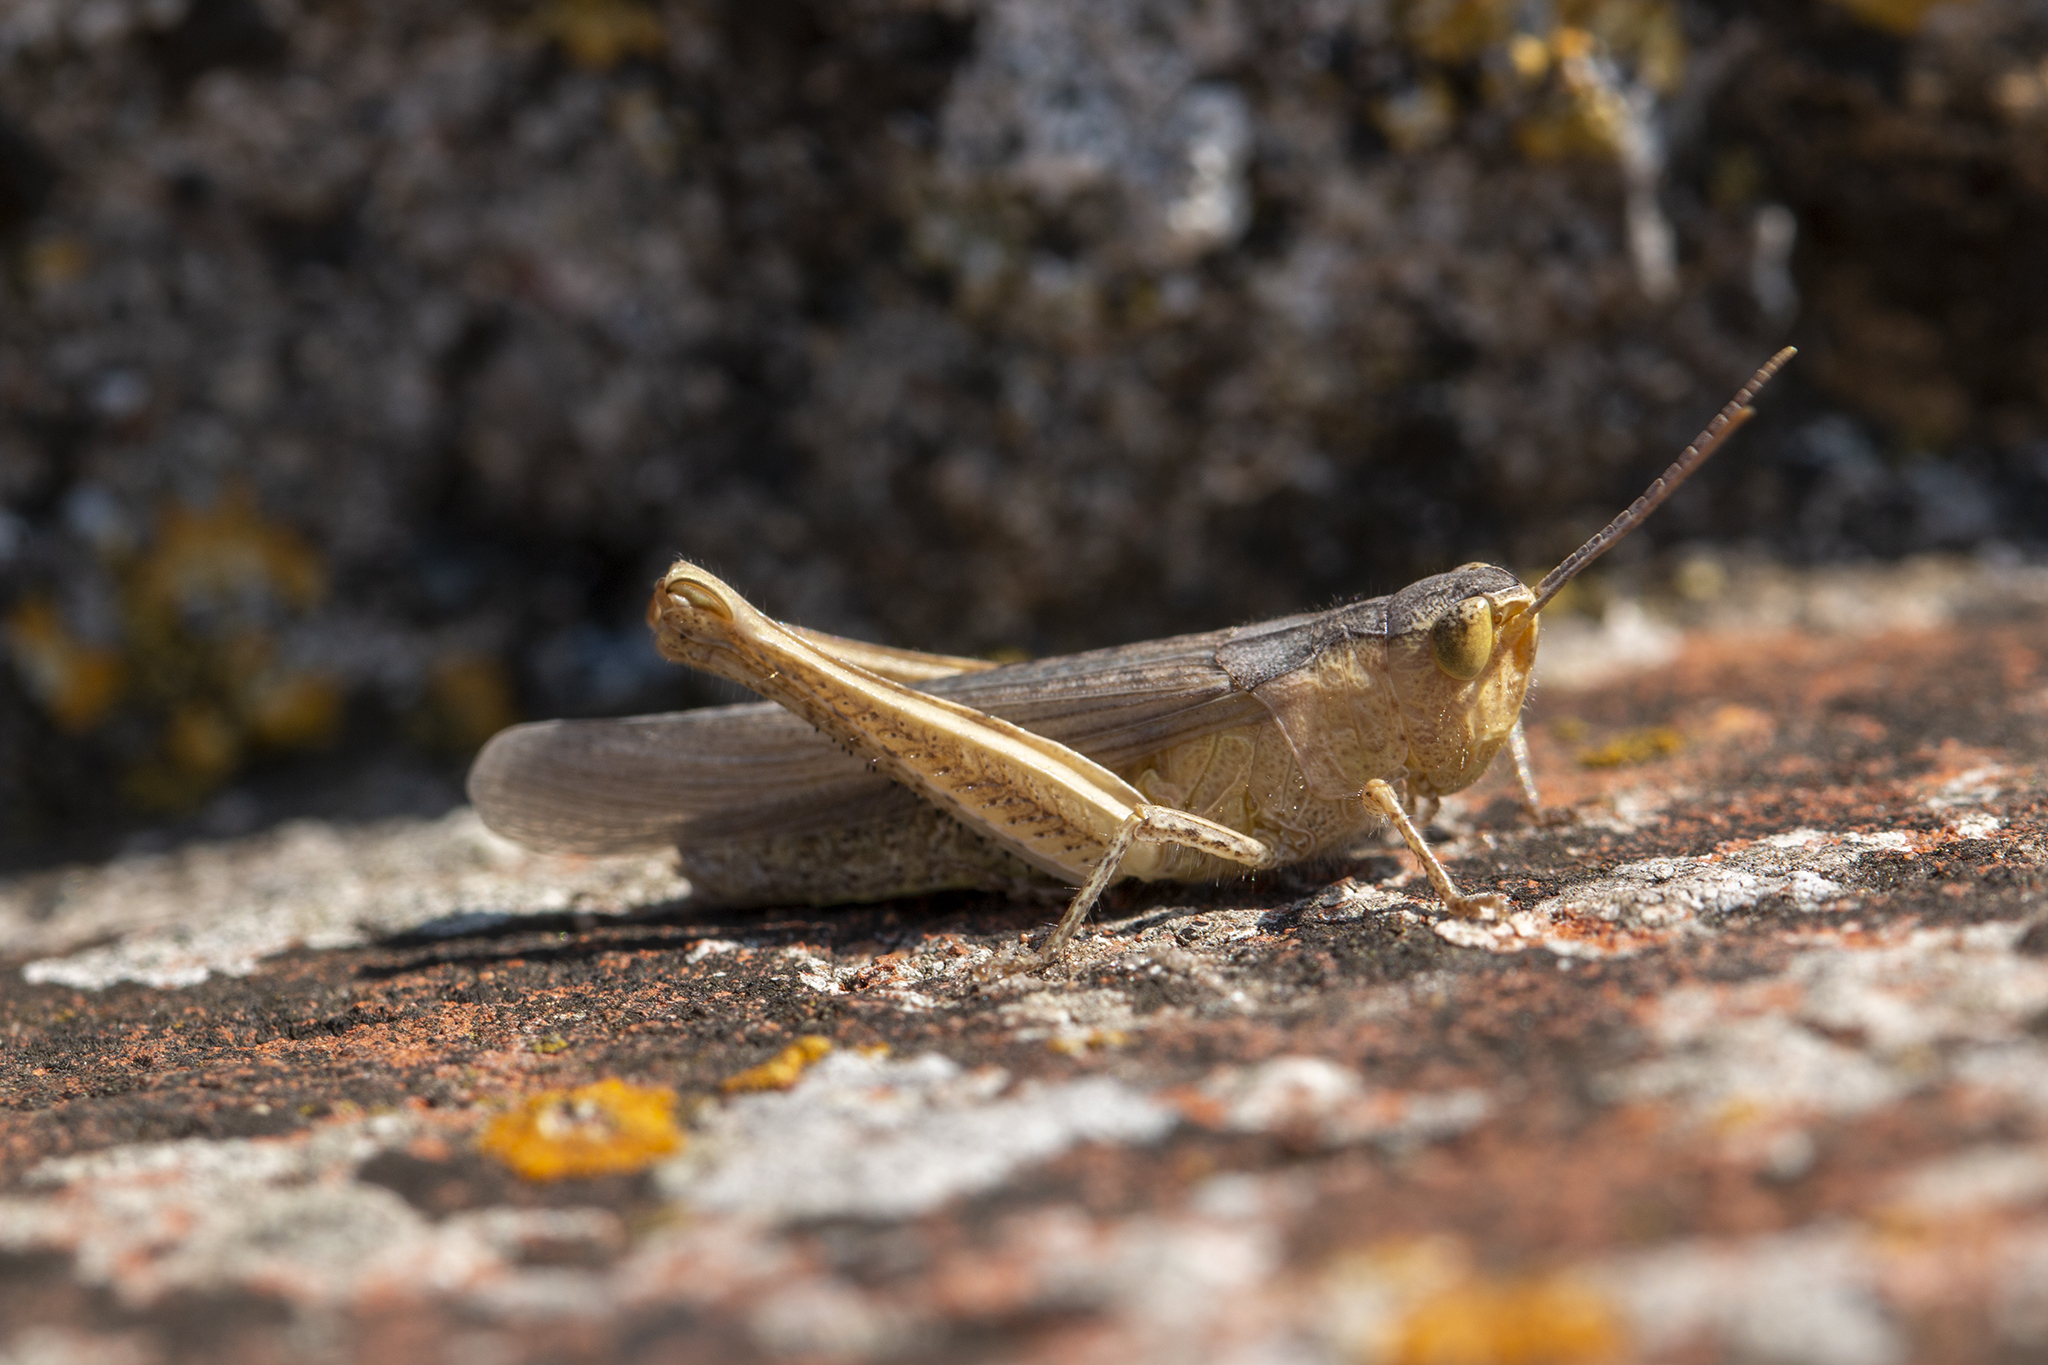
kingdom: Animalia
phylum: Arthropoda
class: Insecta
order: Orthoptera
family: Acrididae
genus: Chorthippus
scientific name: Chorthippus brunneus
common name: Field grasshopper
